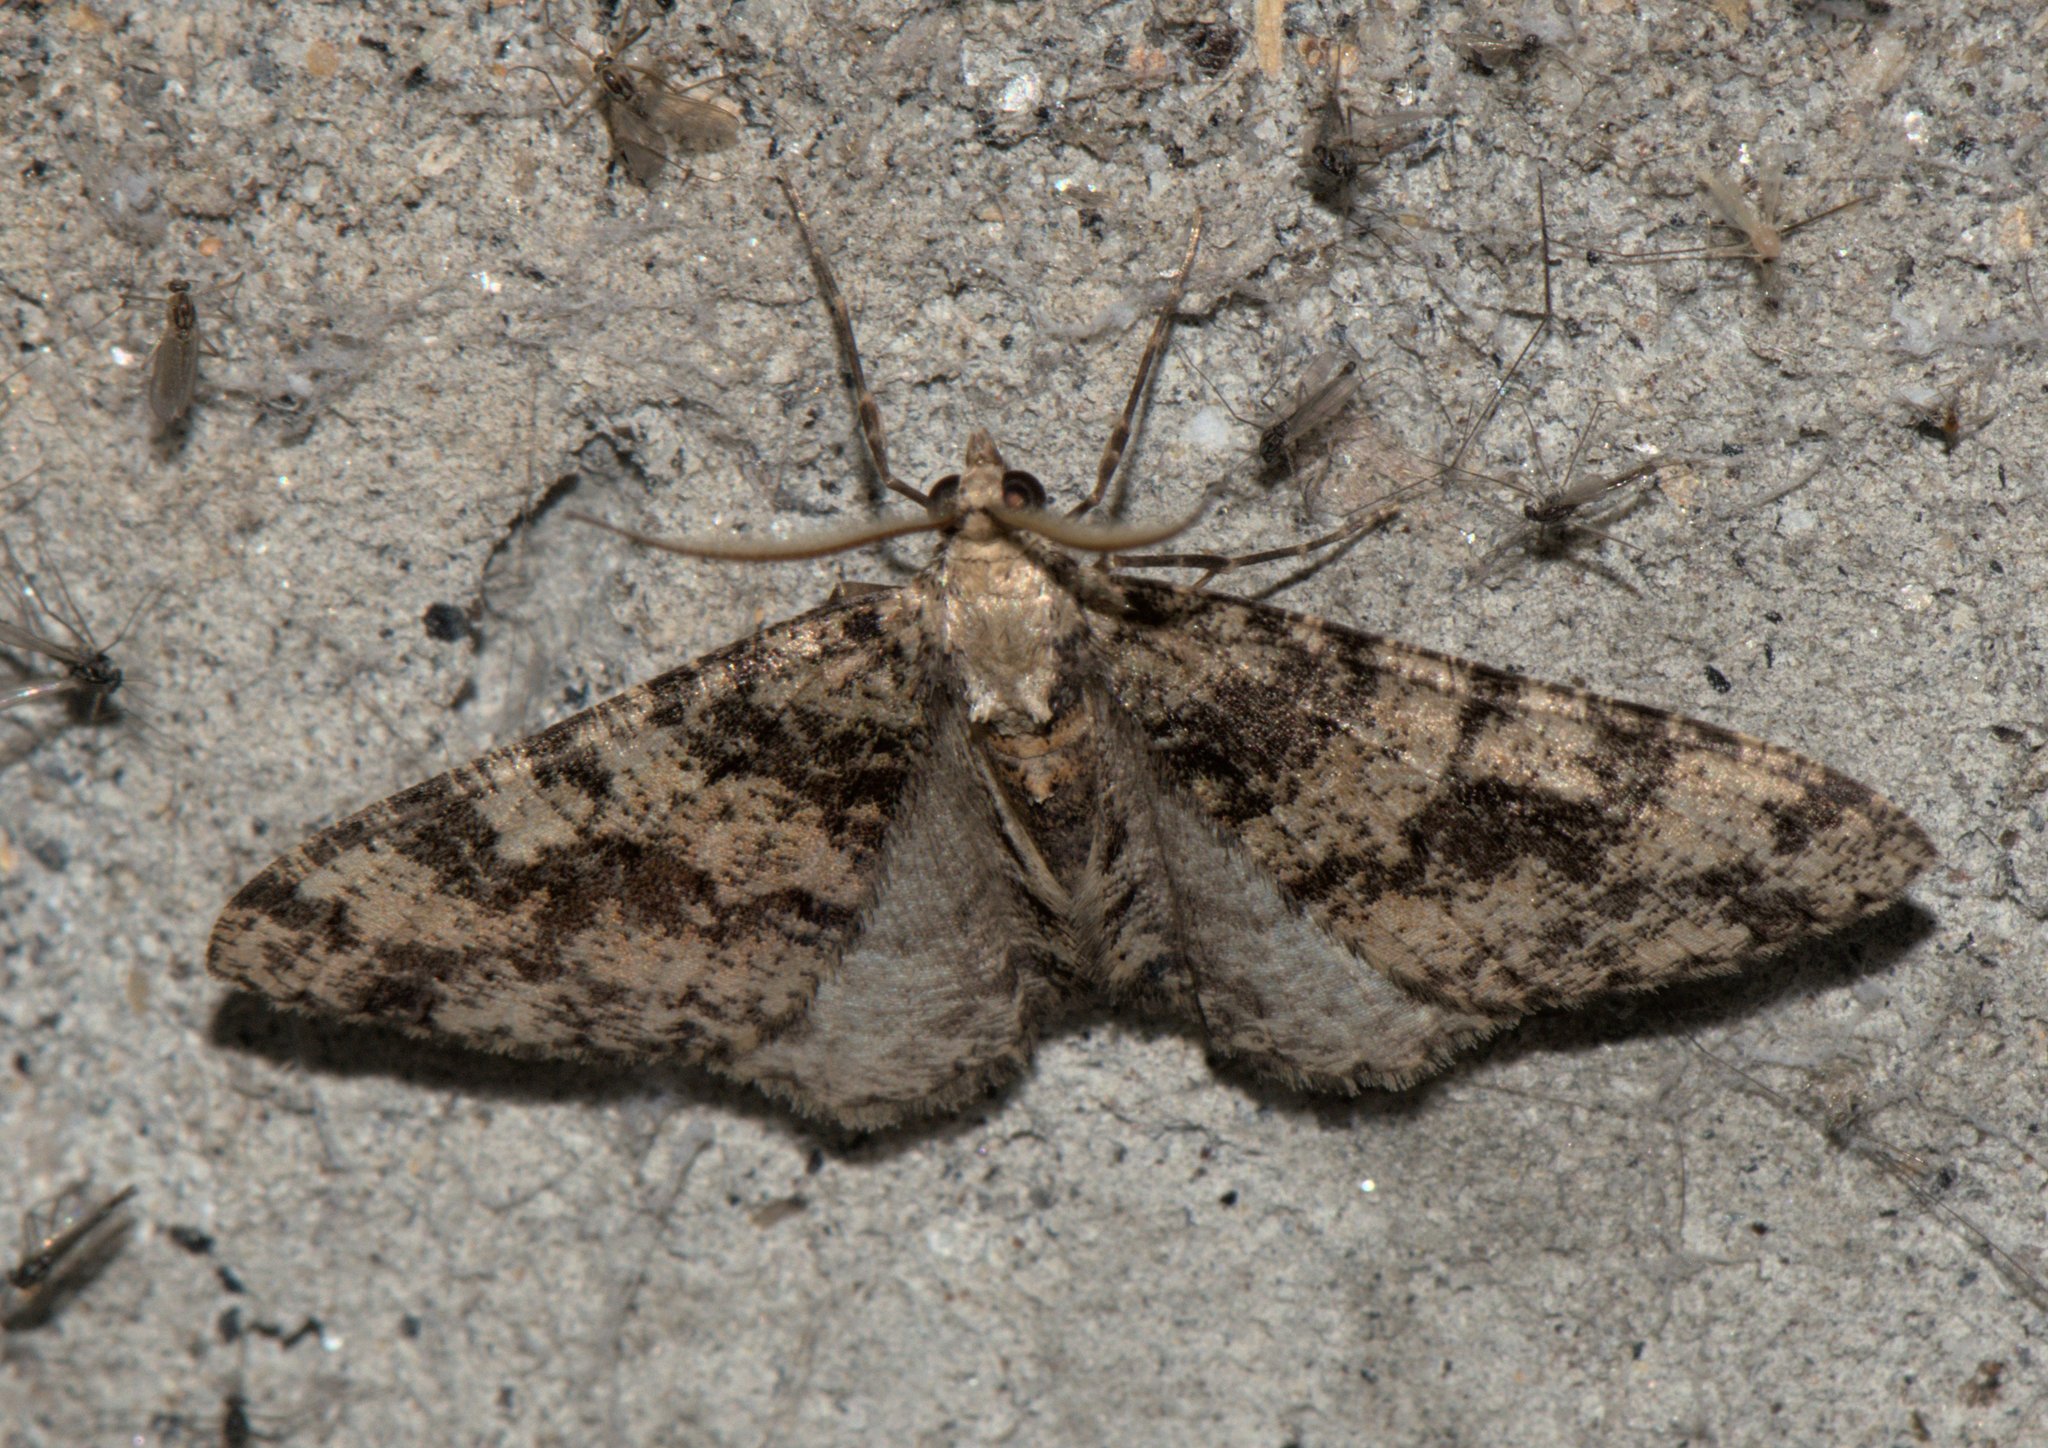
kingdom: Animalia
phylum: Arthropoda
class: Insecta
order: Lepidoptera
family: Geometridae
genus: Myrioblephara
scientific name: Myrioblephara duplexa
